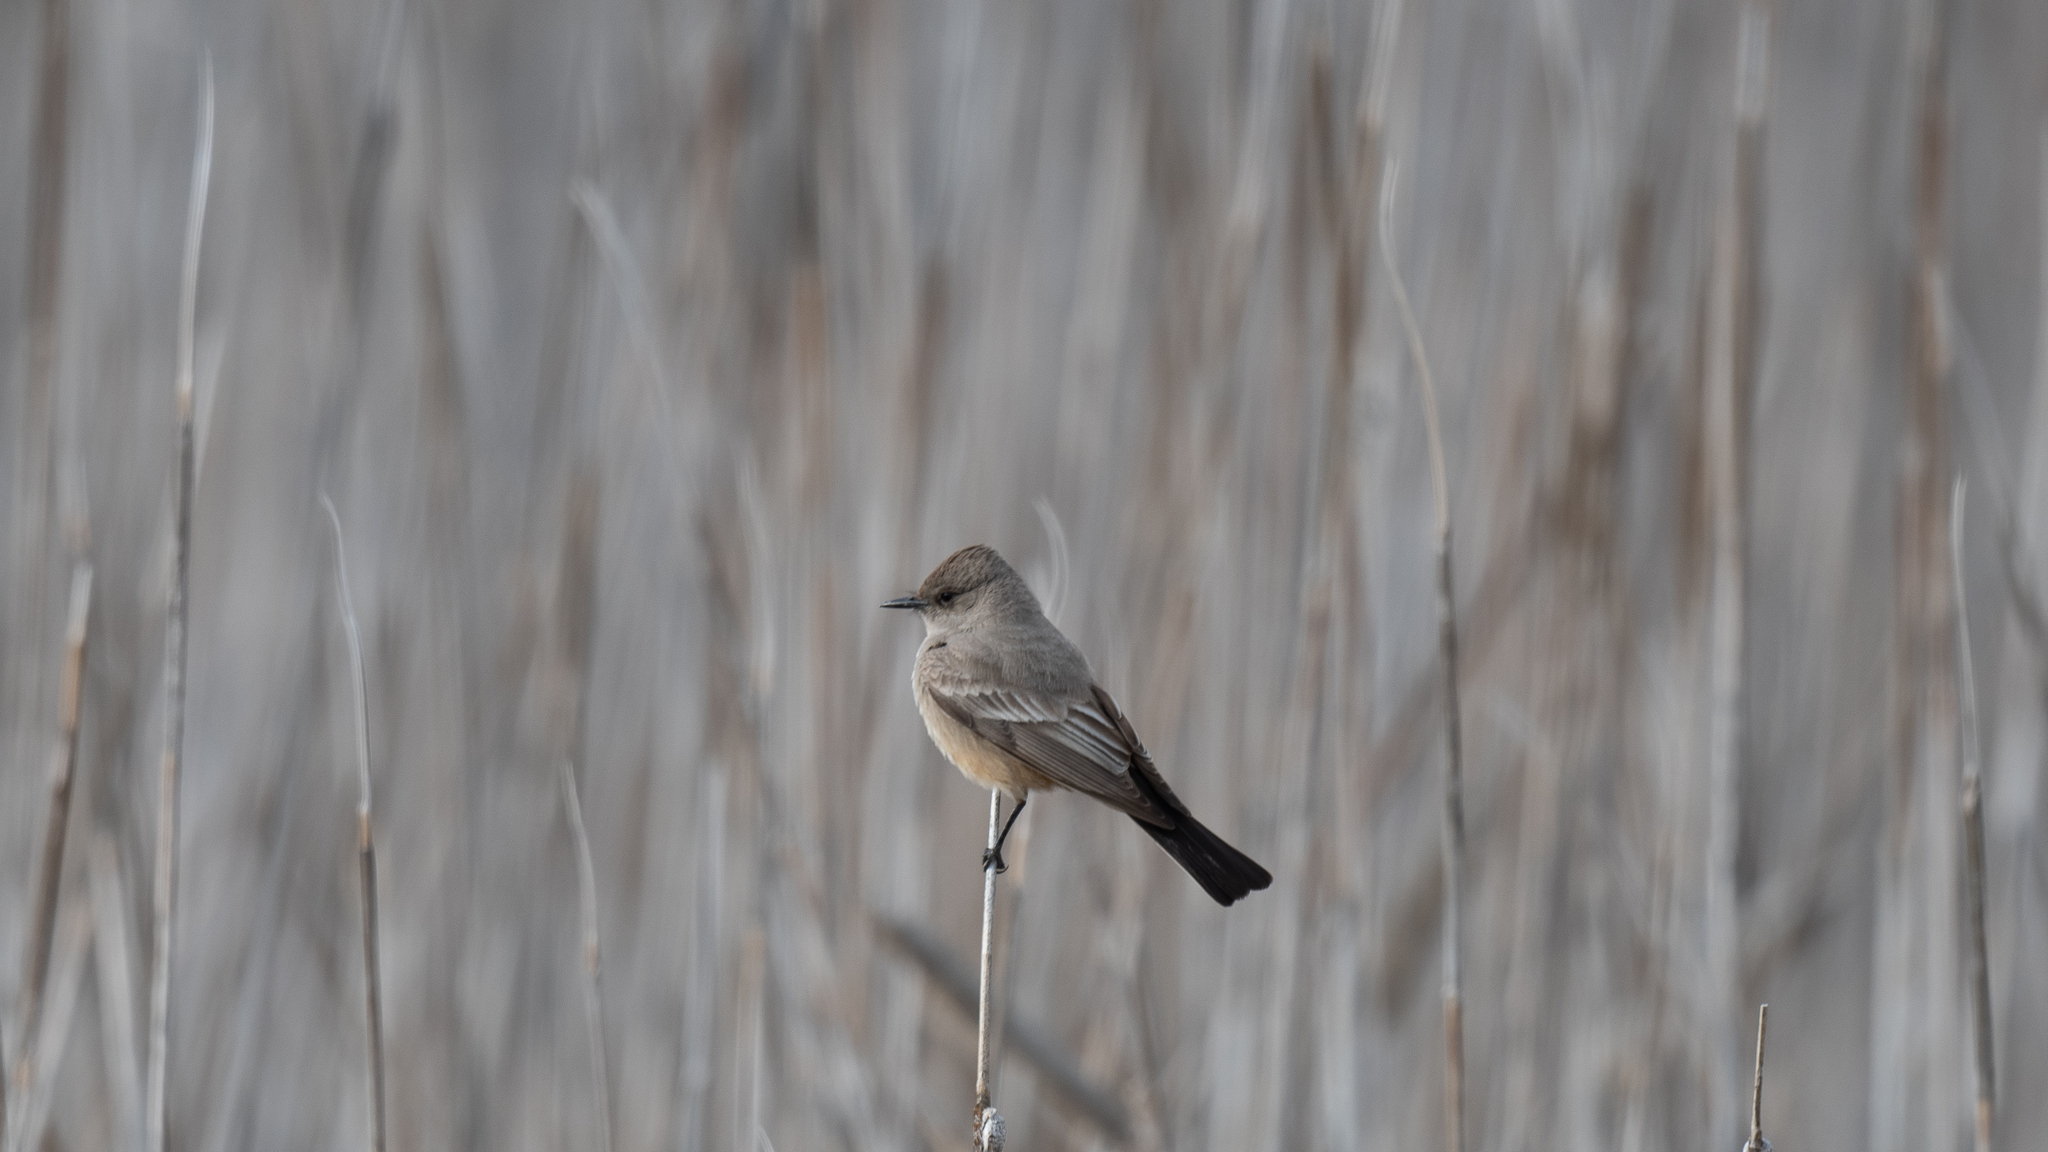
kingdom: Animalia
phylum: Chordata
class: Aves
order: Passeriformes
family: Tyrannidae
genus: Sayornis
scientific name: Sayornis saya
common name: Say's phoebe
